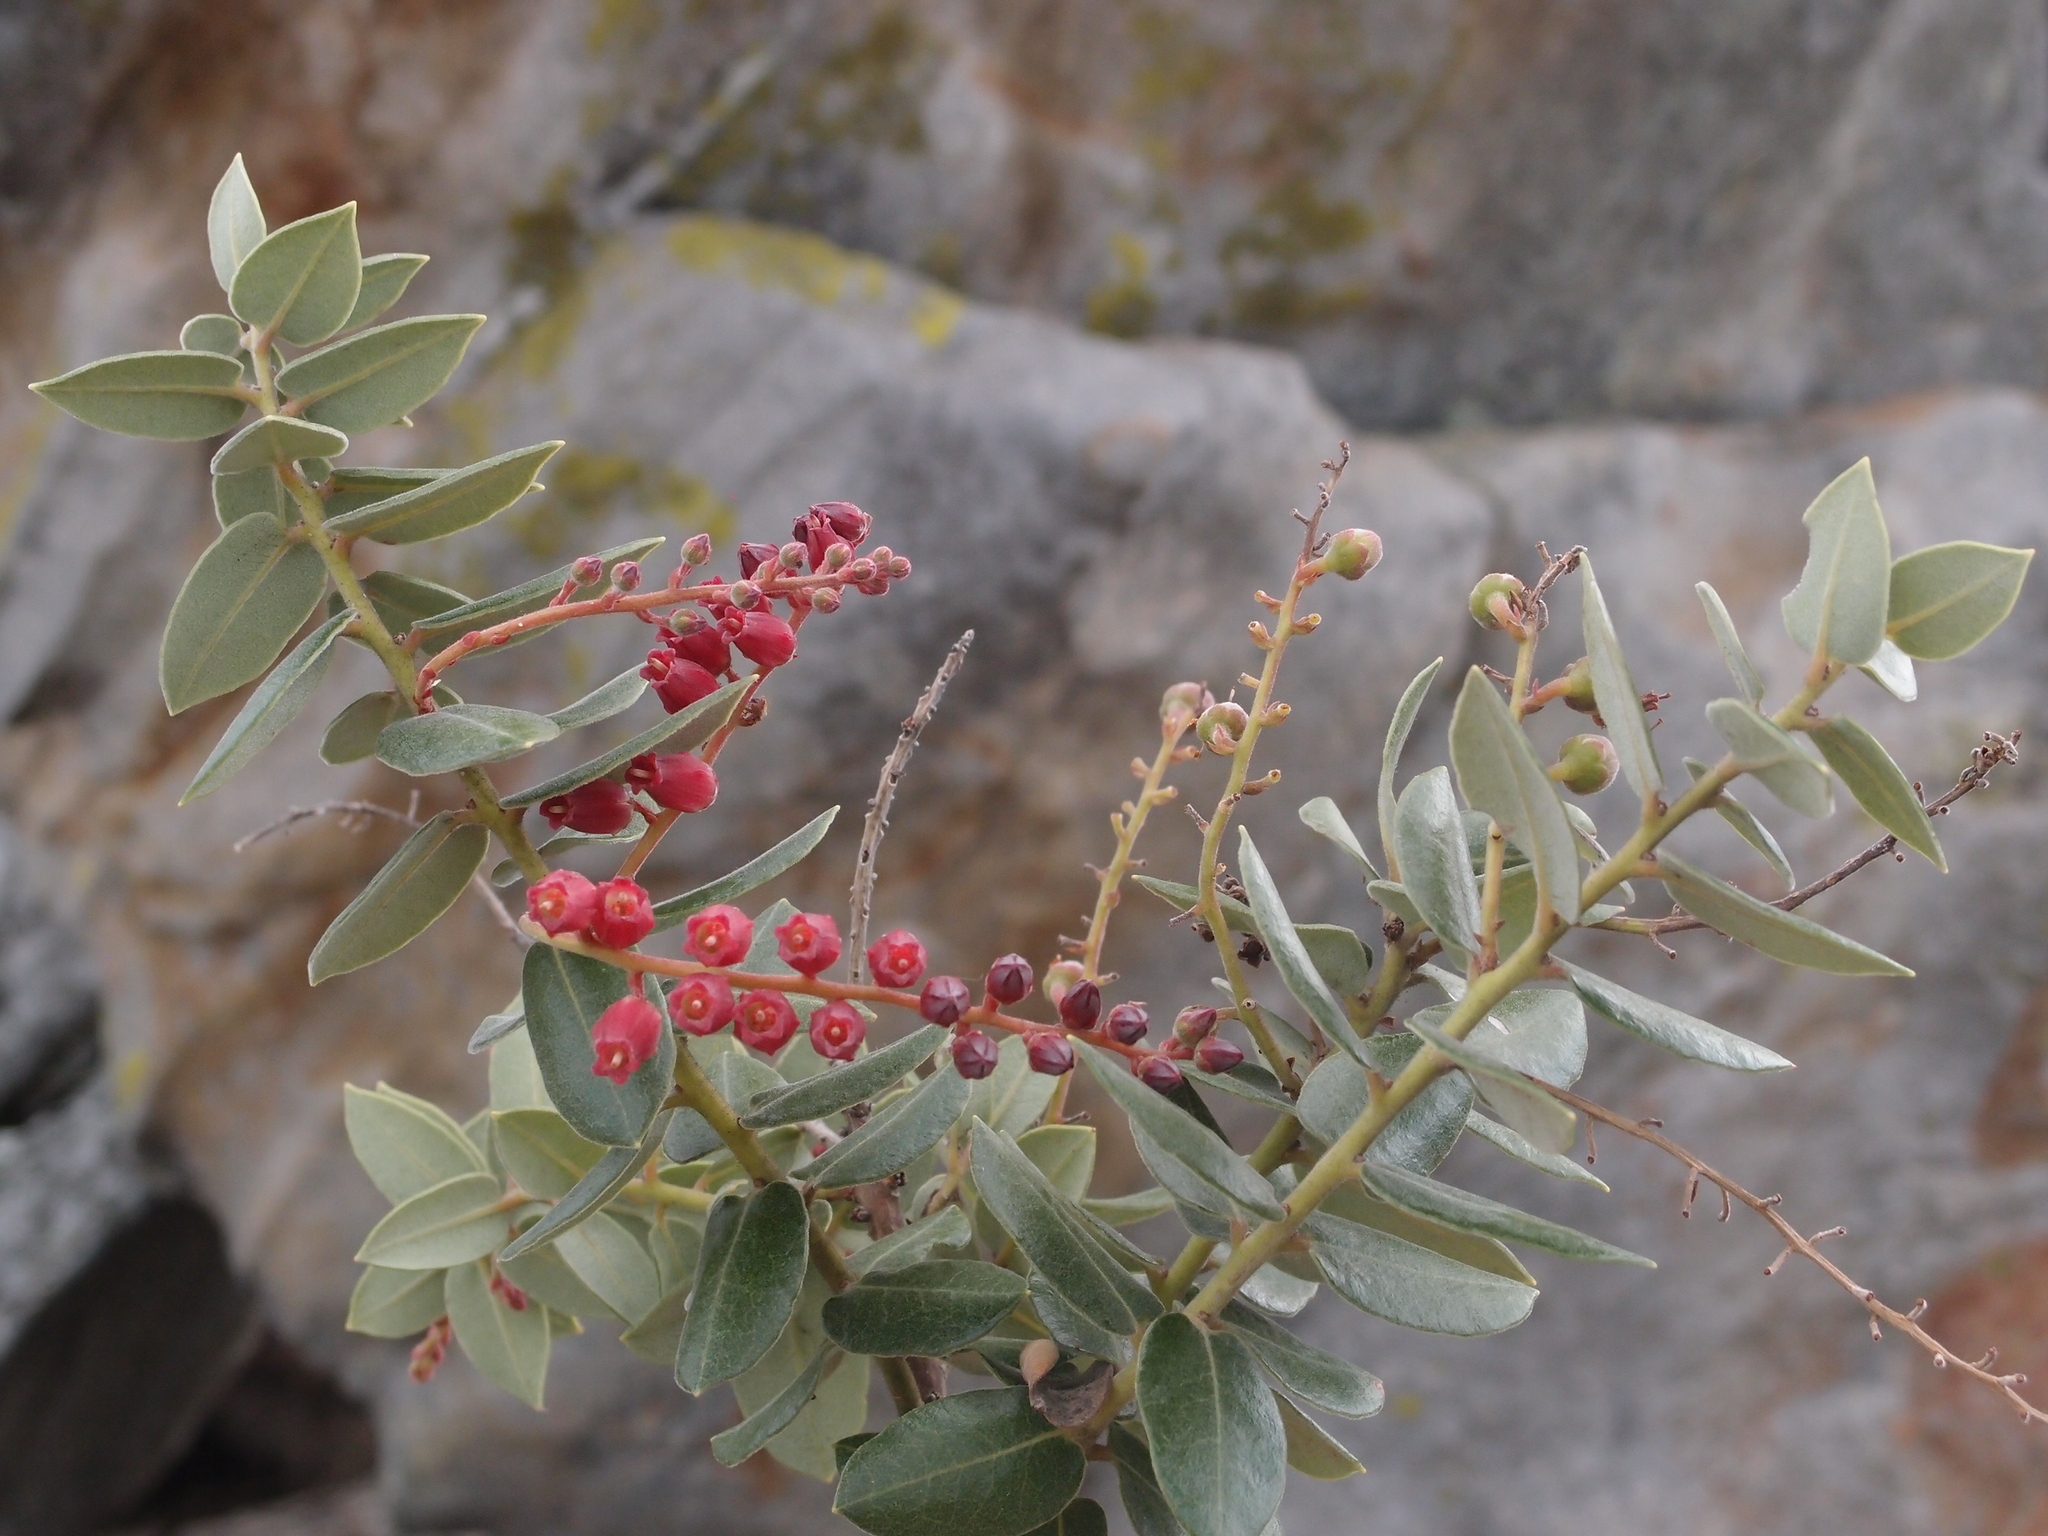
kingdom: Plantae
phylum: Tracheophyta
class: Magnoliopsida
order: Ericales
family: Ericaceae
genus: Agarista
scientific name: Agarista buxifolia
